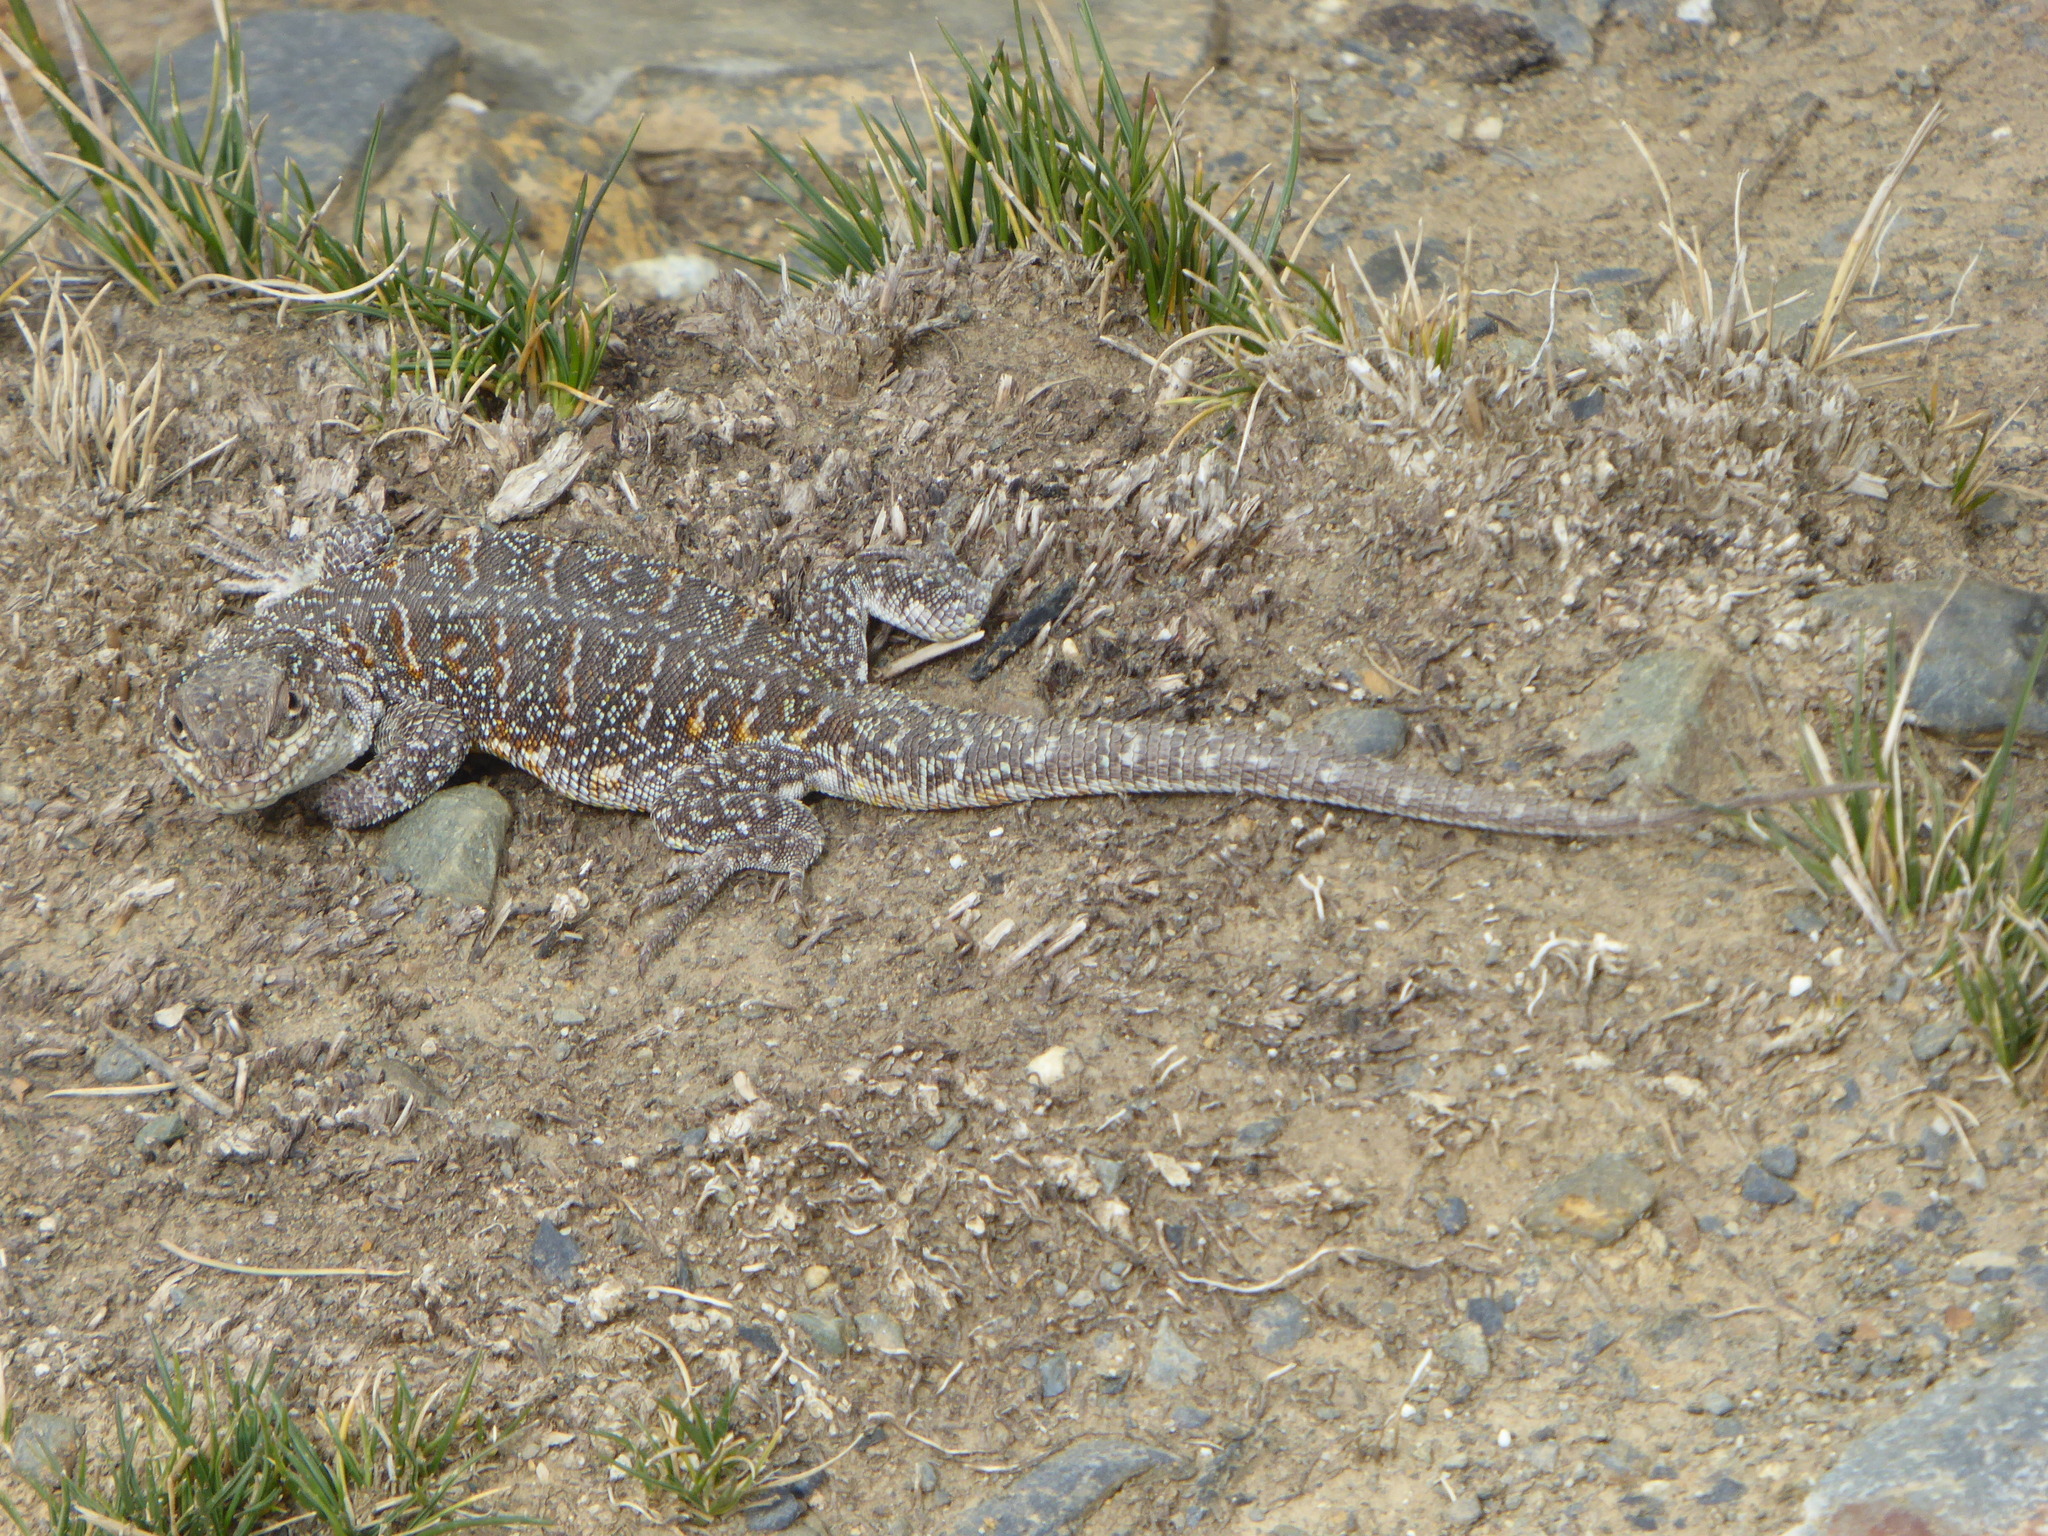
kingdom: Animalia
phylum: Chordata
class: Squamata
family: Liolaemidae
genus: Liolaemus
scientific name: Liolaemus forsteri
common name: Forster's tree iguana
